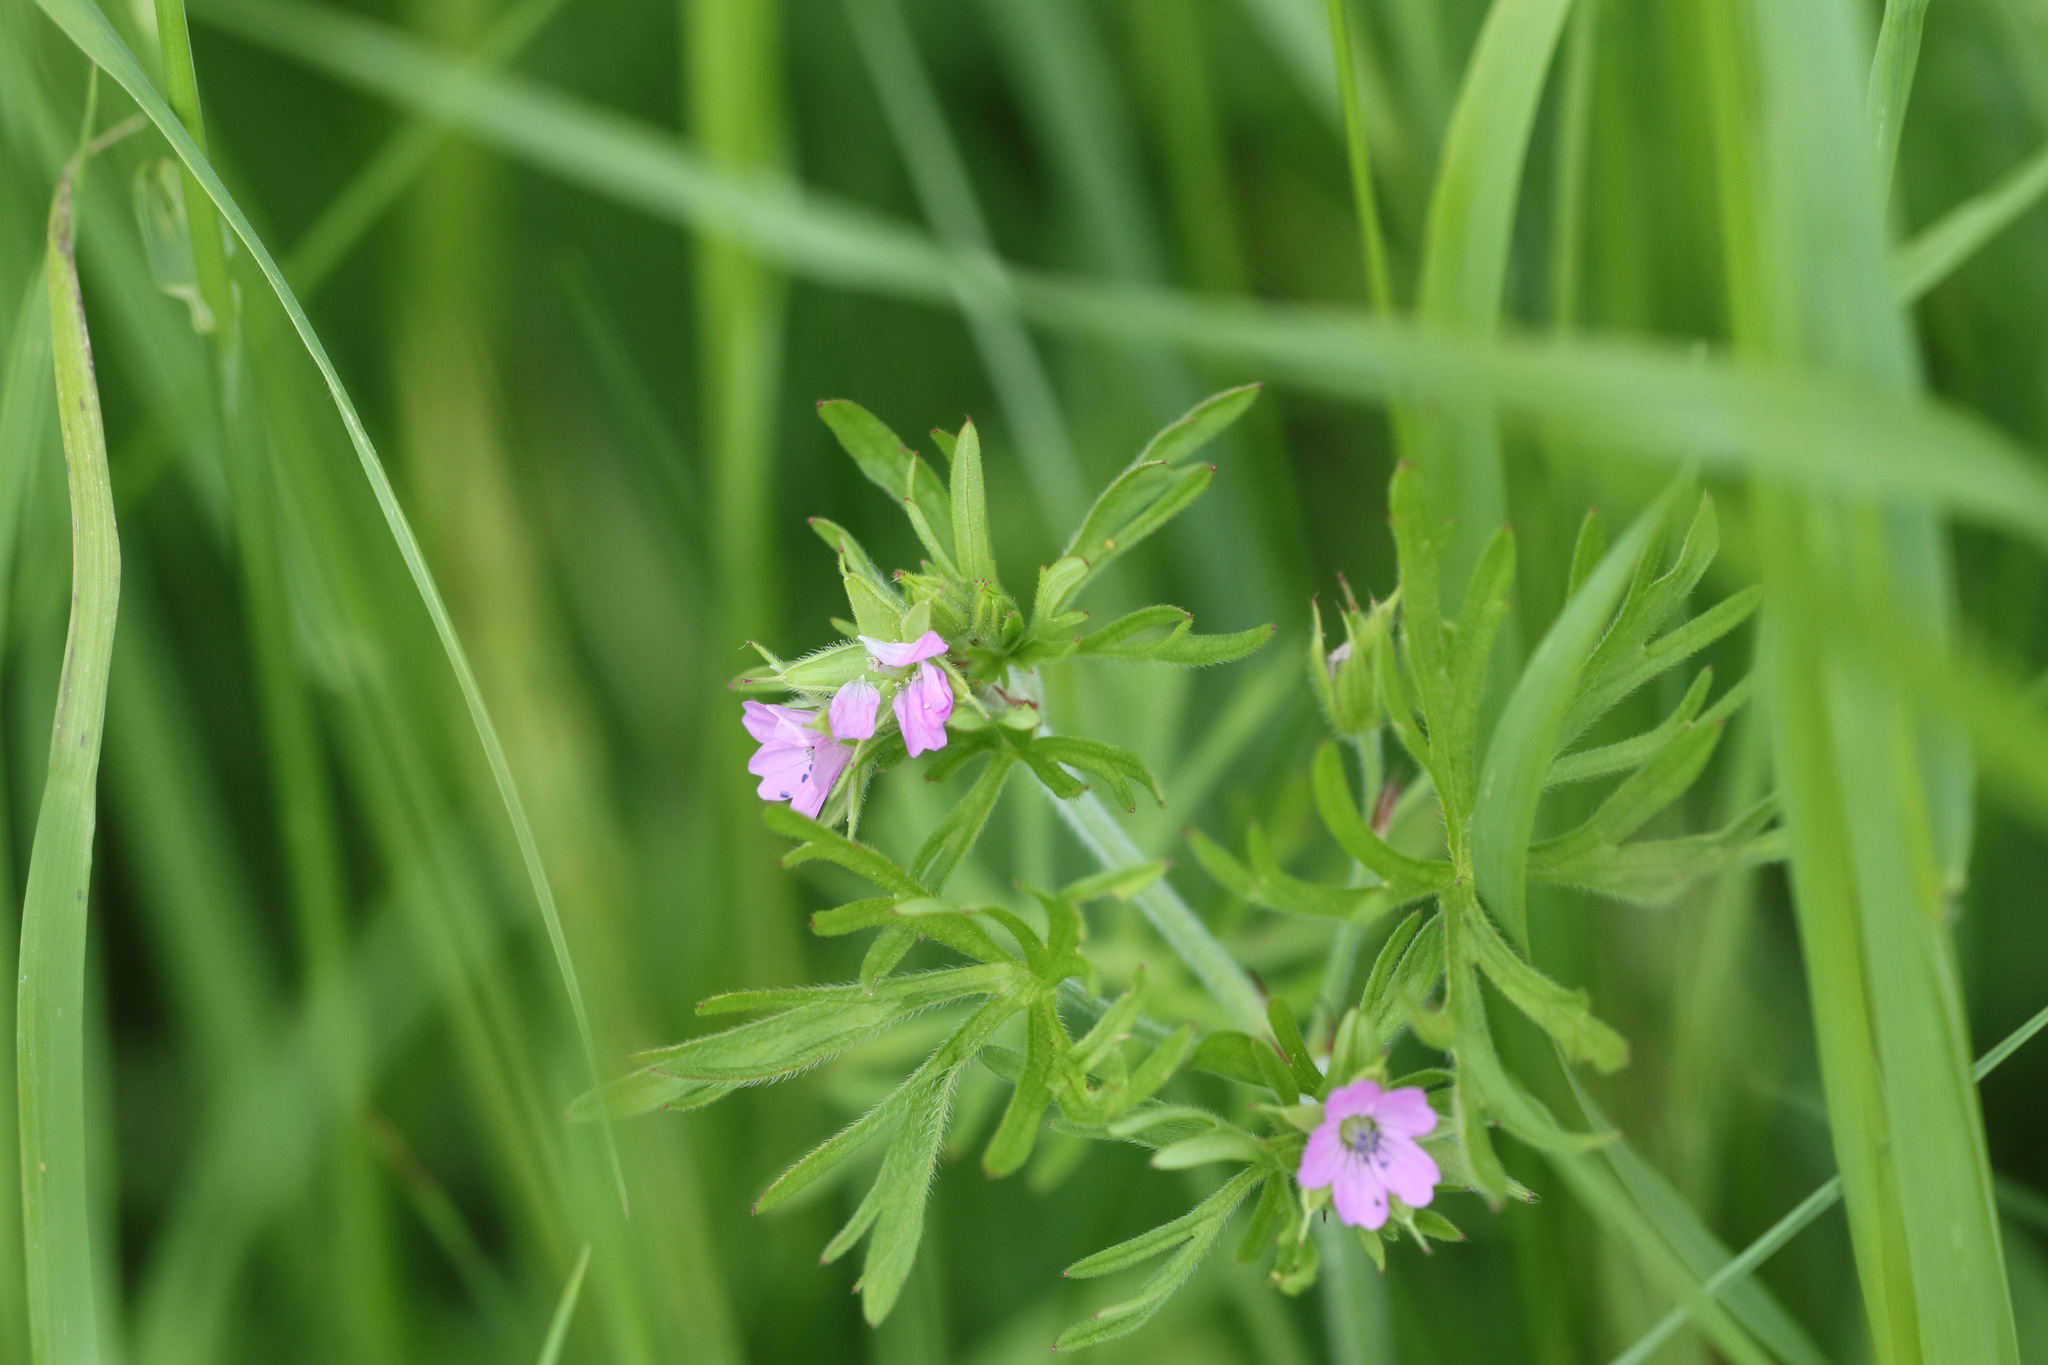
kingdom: Plantae
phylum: Tracheophyta
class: Magnoliopsida
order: Geraniales
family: Geraniaceae
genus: Geranium
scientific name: Geranium dissectum
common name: Cut-leaved crane's-bill
